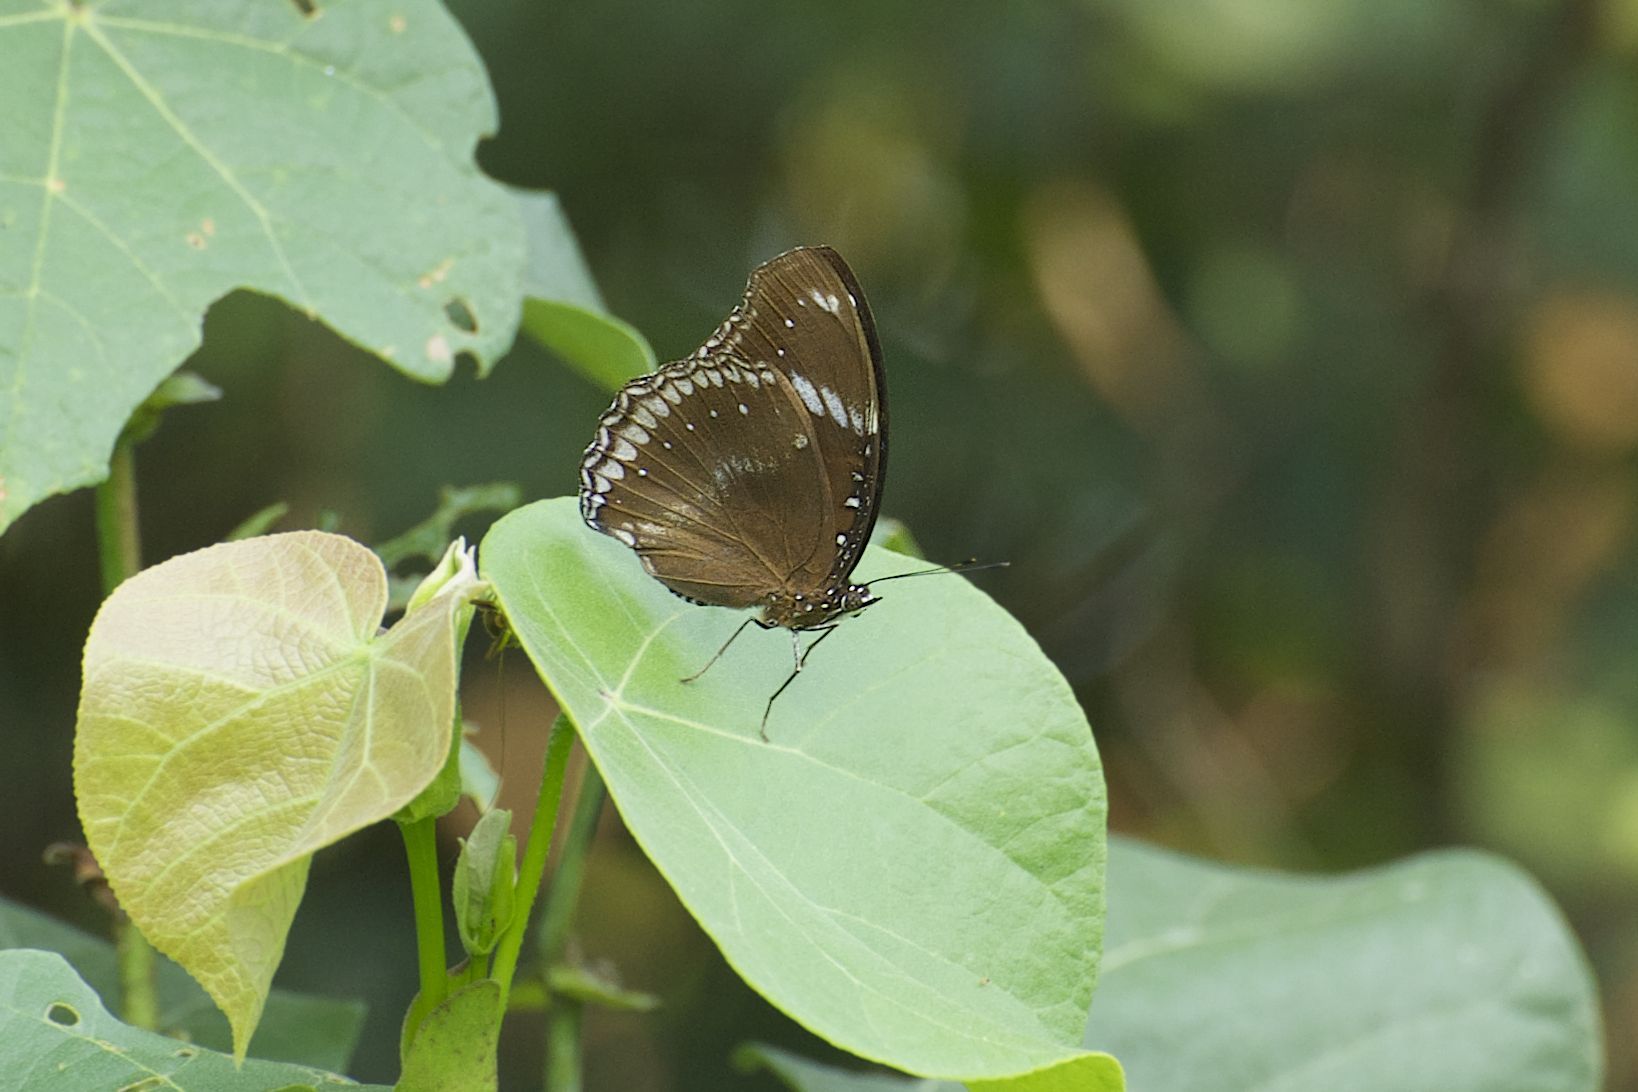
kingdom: Animalia
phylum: Arthropoda
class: Insecta
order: Lepidoptera
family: Nymphalidae
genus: Hypolimnas
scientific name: Hypolimnas bolina
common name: Great eggfly
